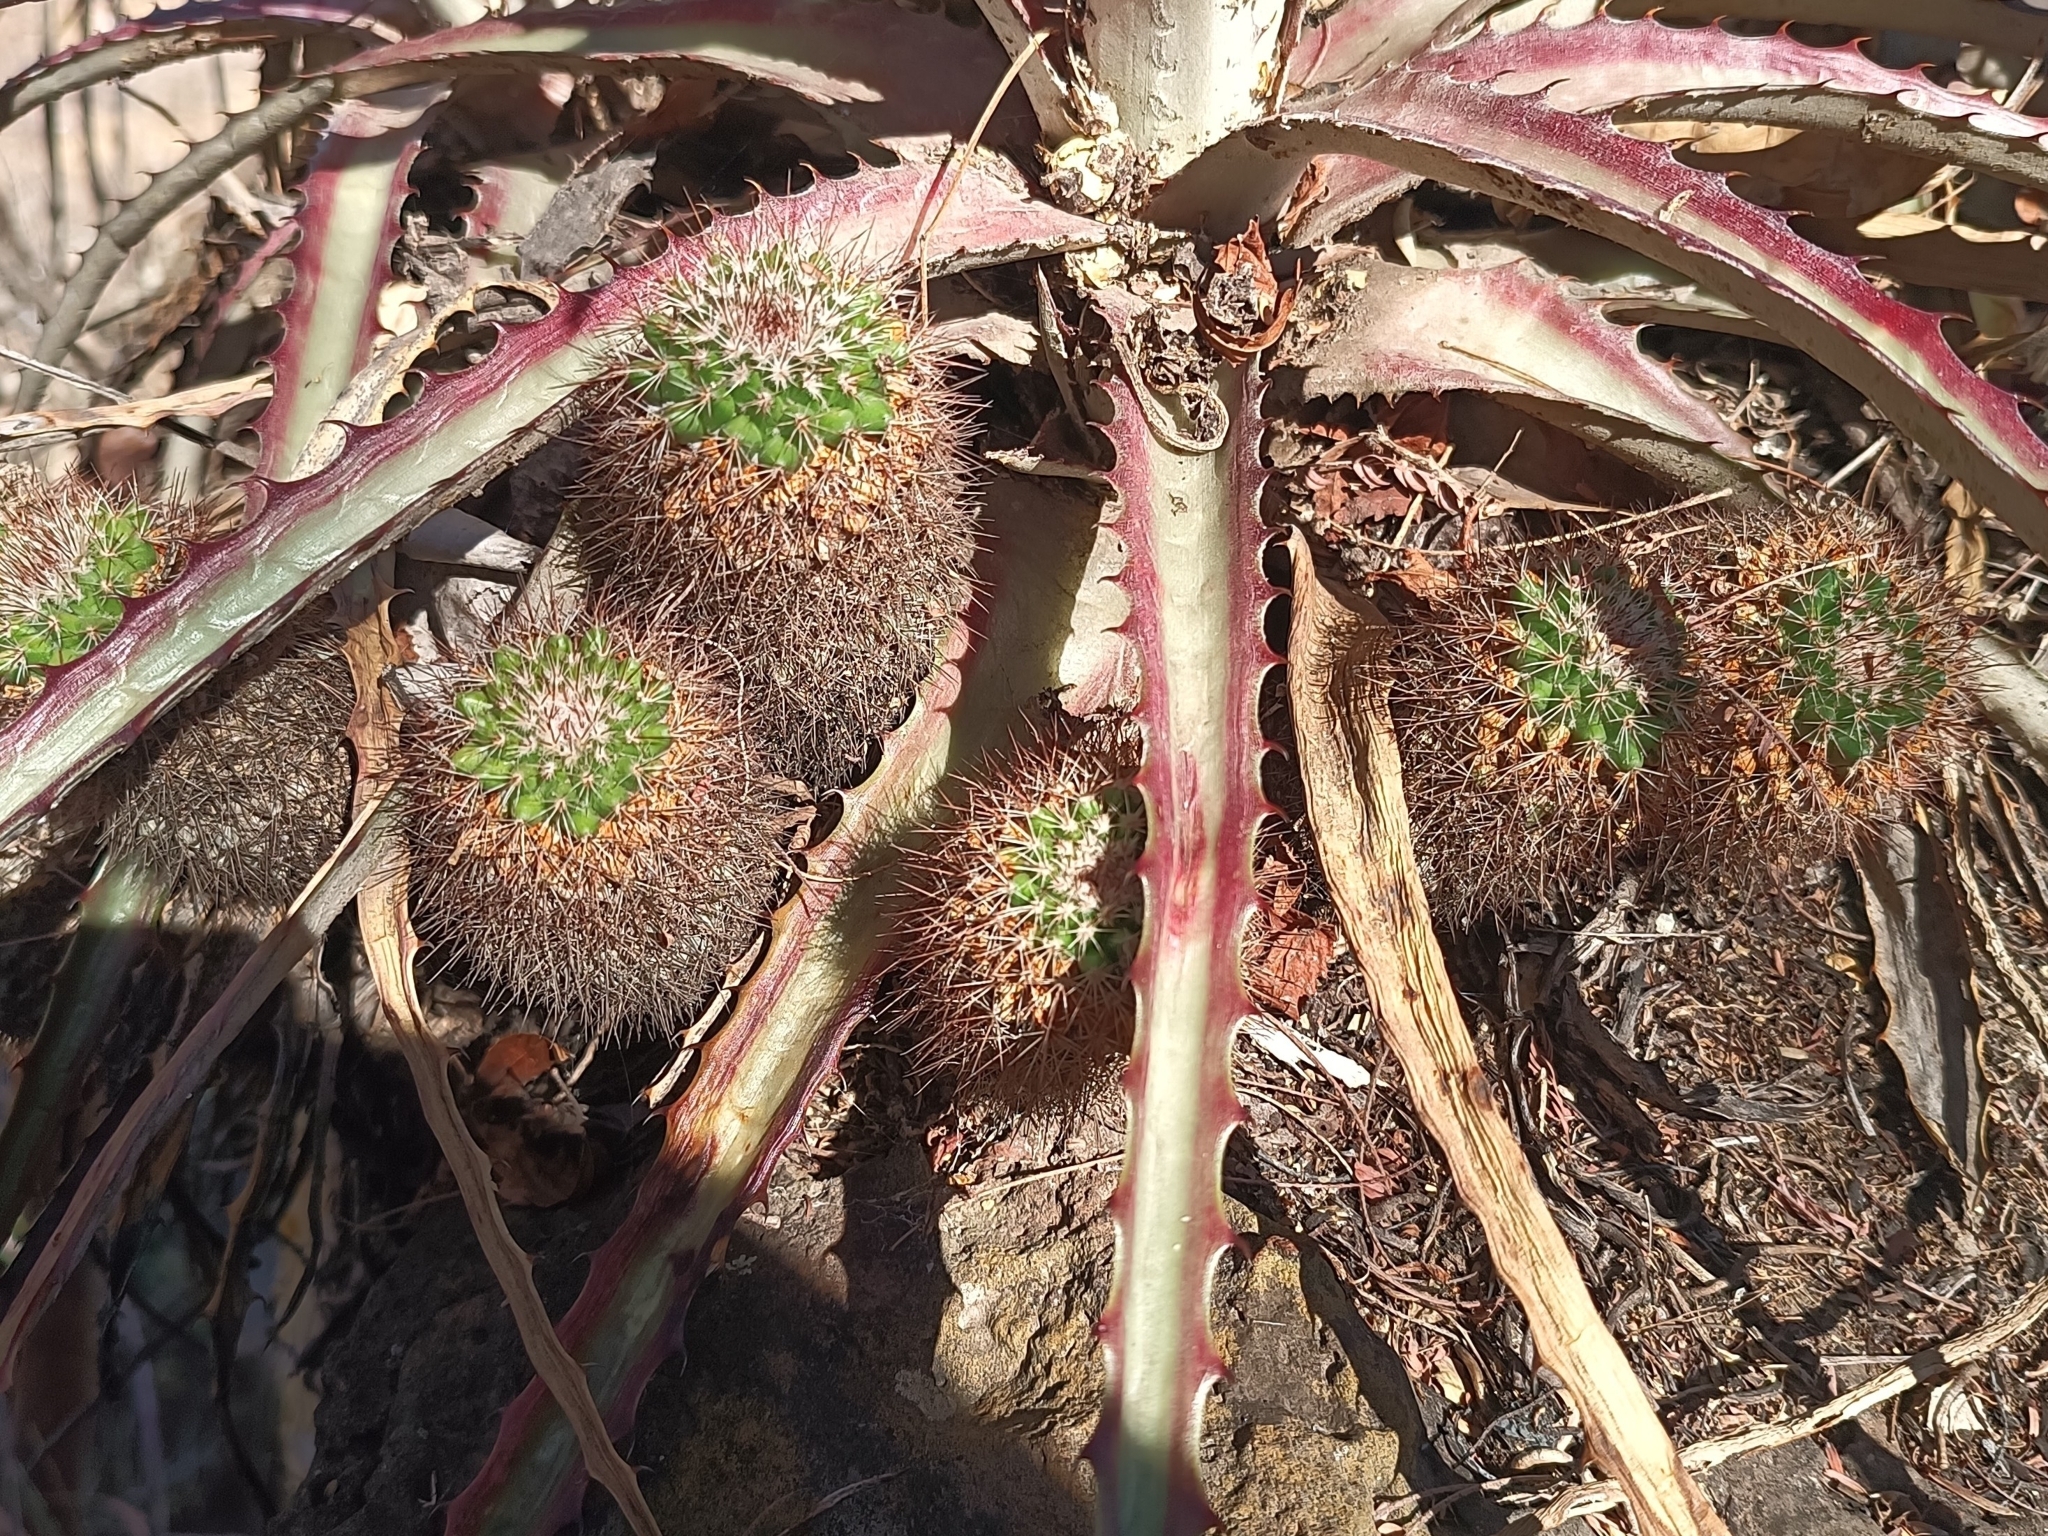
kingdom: Plantae
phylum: Tracheophyta
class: Magnoliopsida
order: Caryophyllales
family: Cactaceae
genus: Mammillaria
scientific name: Mammillaria scrippsiana
